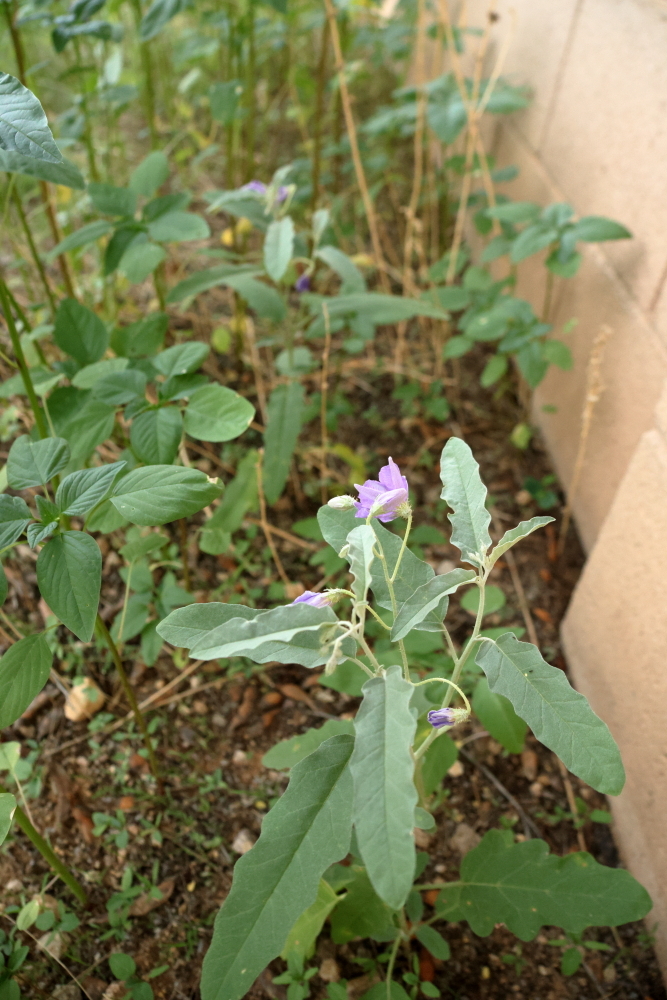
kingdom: Plantae
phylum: Tracheophyta
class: Magnoliopsida
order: Solanales
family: Solanaceae
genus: Solanum
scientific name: Solanum elaeagnifolium
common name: Silverleaf nightshade
